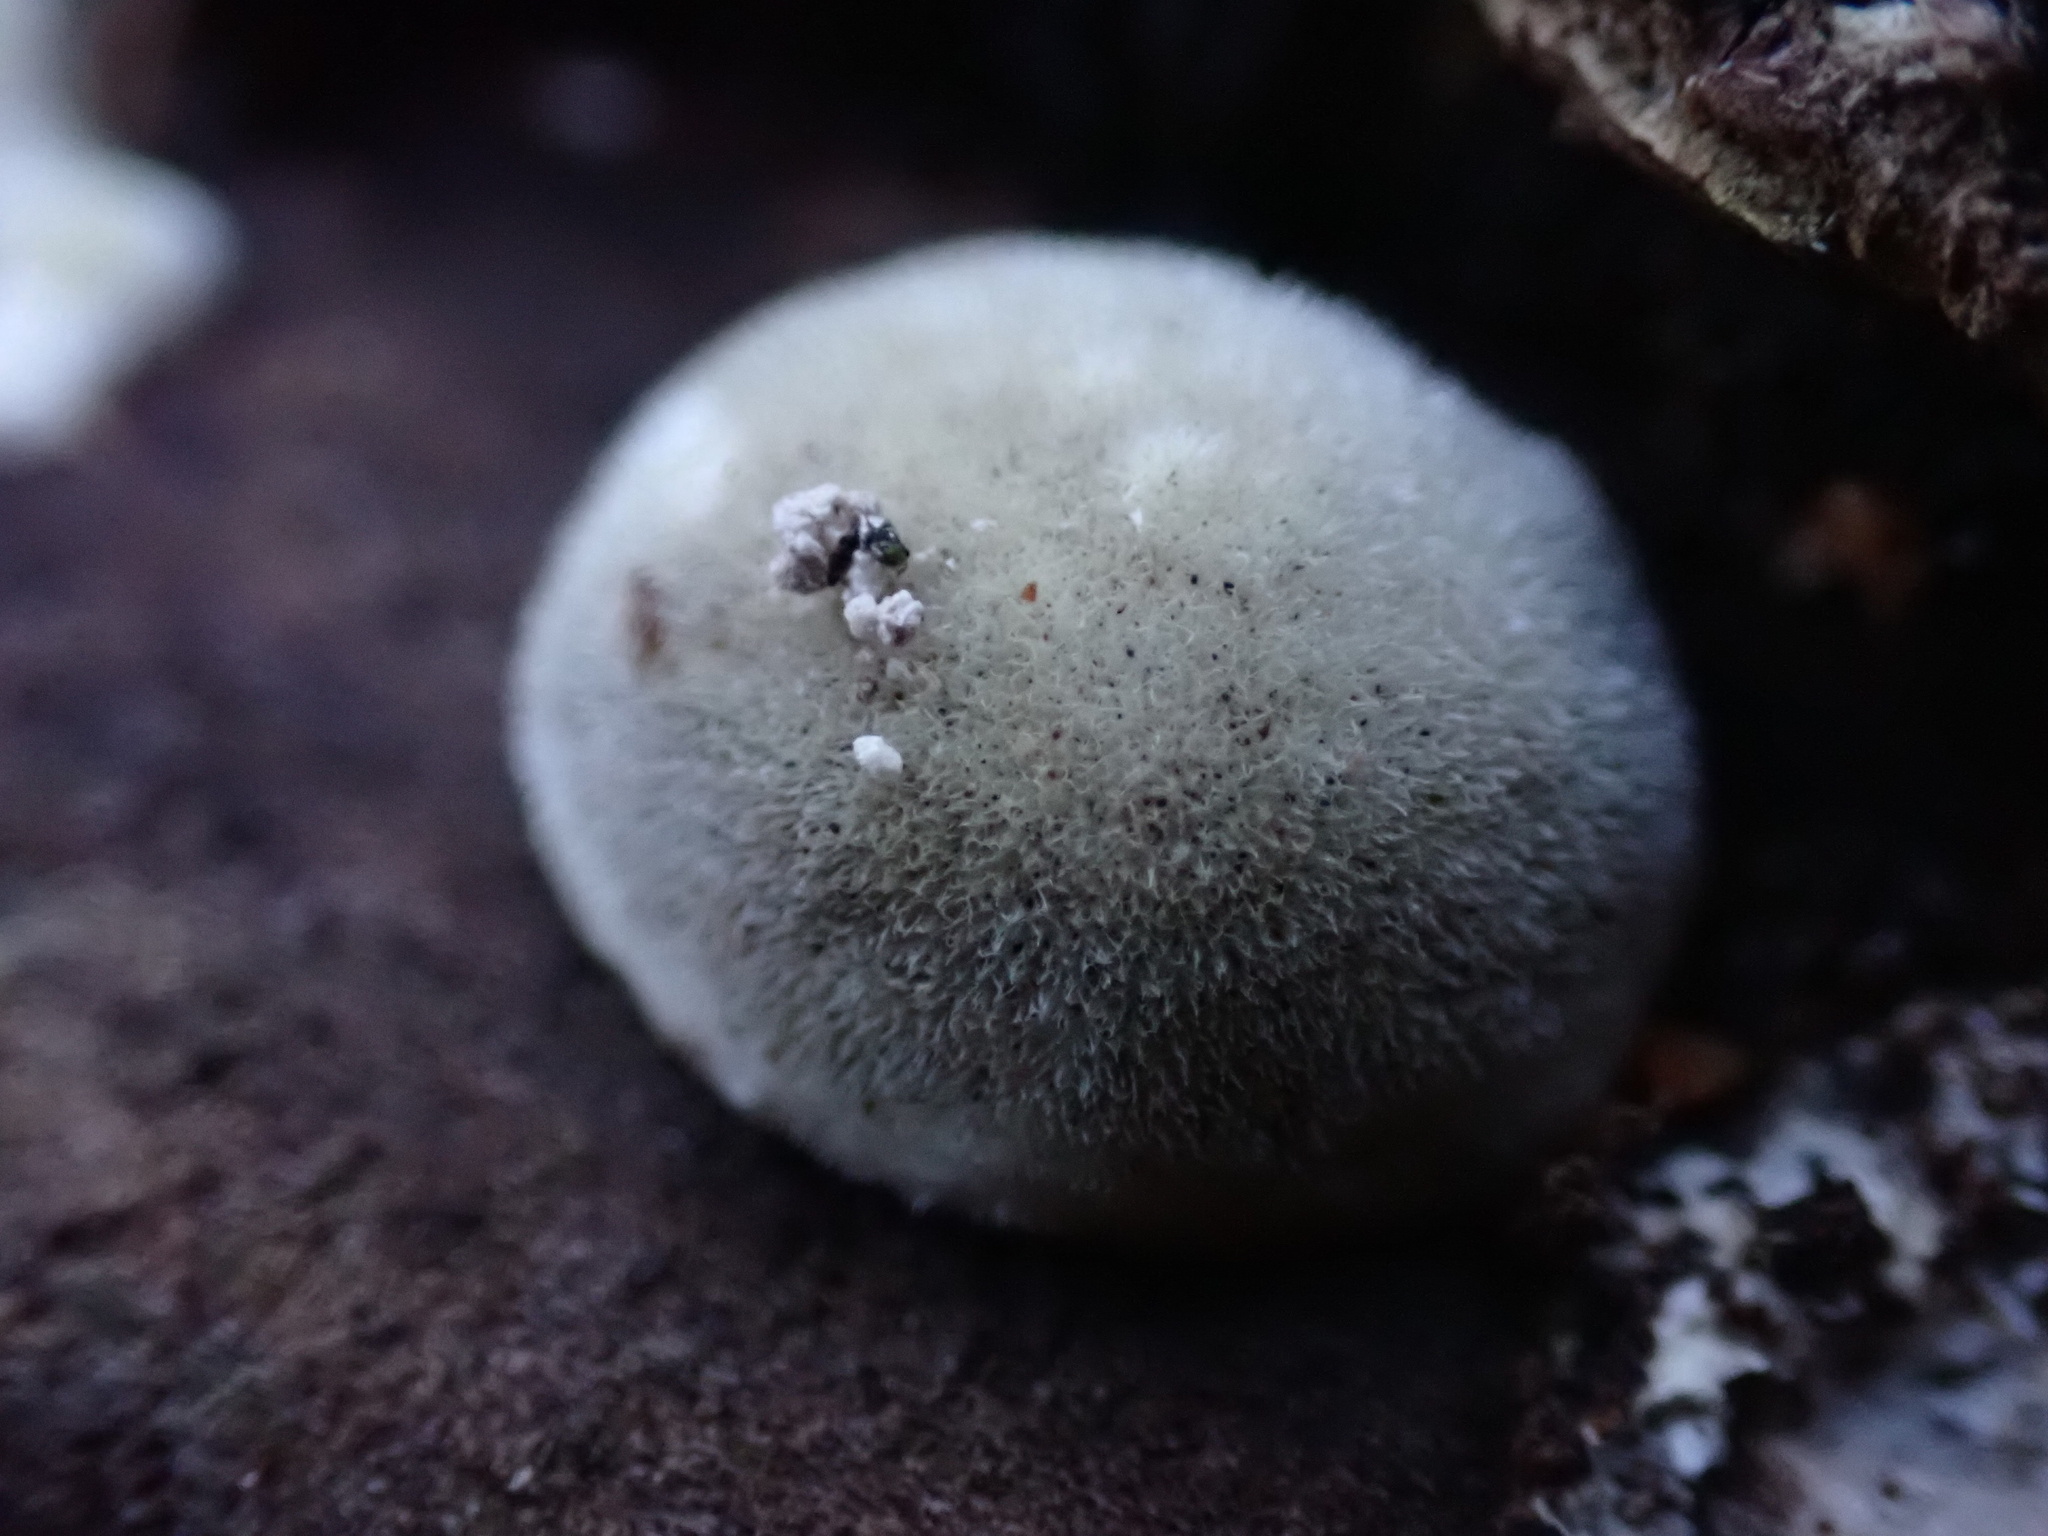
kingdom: Fungi
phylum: Basidiomycota
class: Agaricomycetes
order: Polyporales
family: Polyporaceae
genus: Cyanosporus
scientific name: Cyanosporus livens
